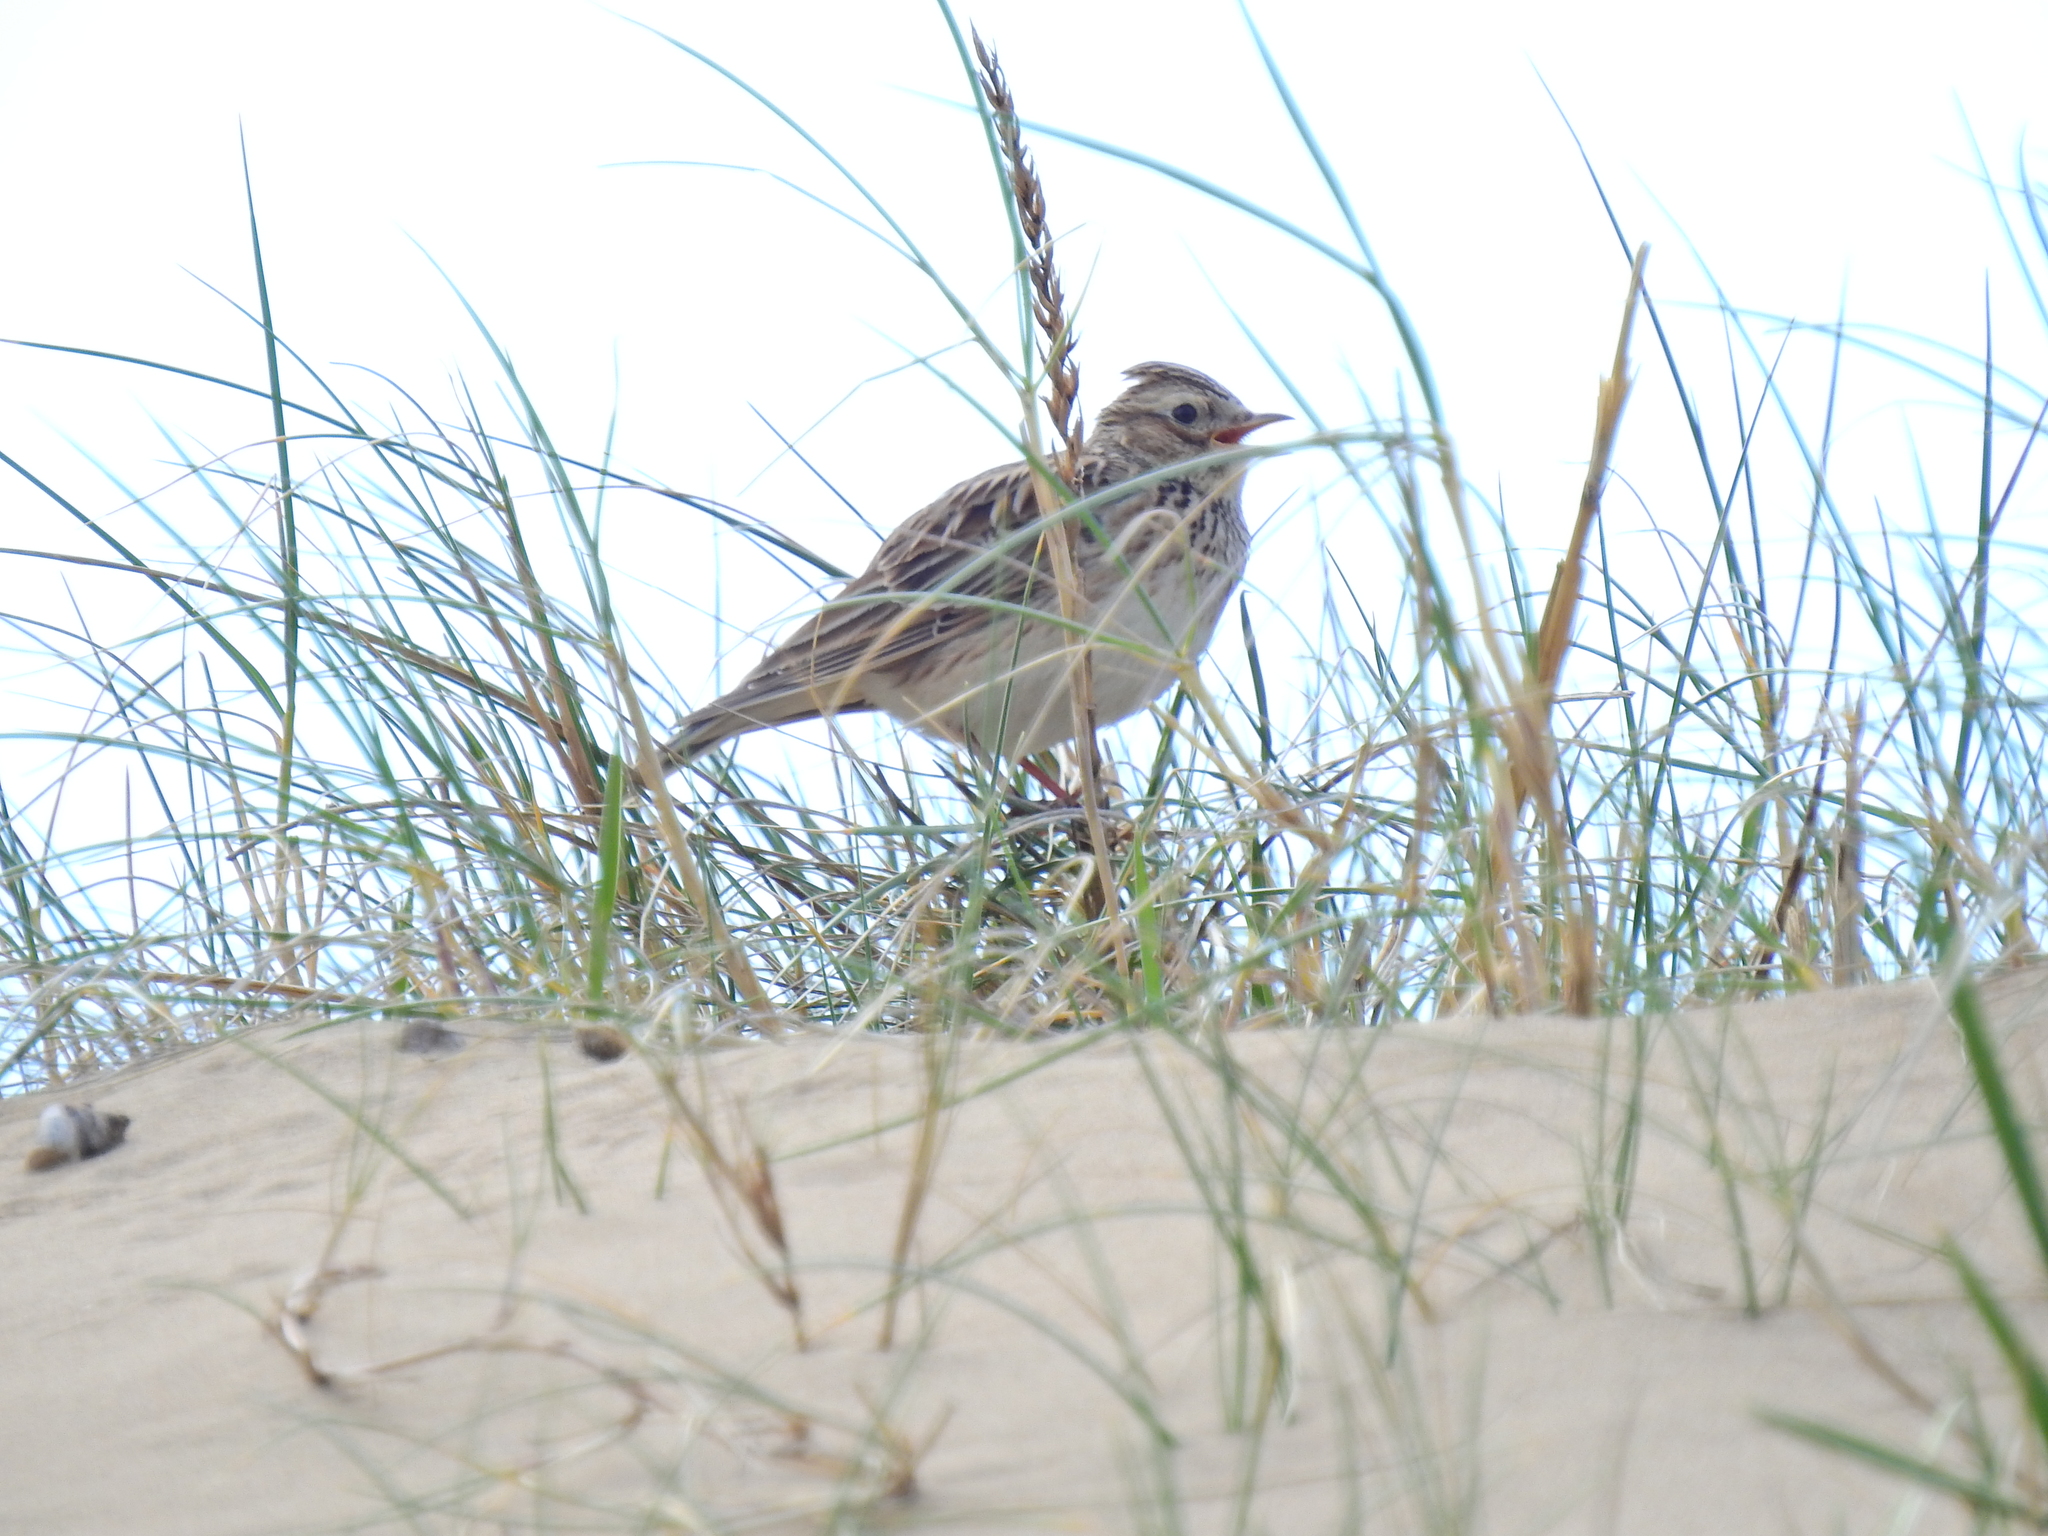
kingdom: Animalia
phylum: Chordata
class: Aves
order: Passeriformes
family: Alaudidae
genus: Alauda
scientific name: Alauda arvensis
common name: Eurasian skylark
